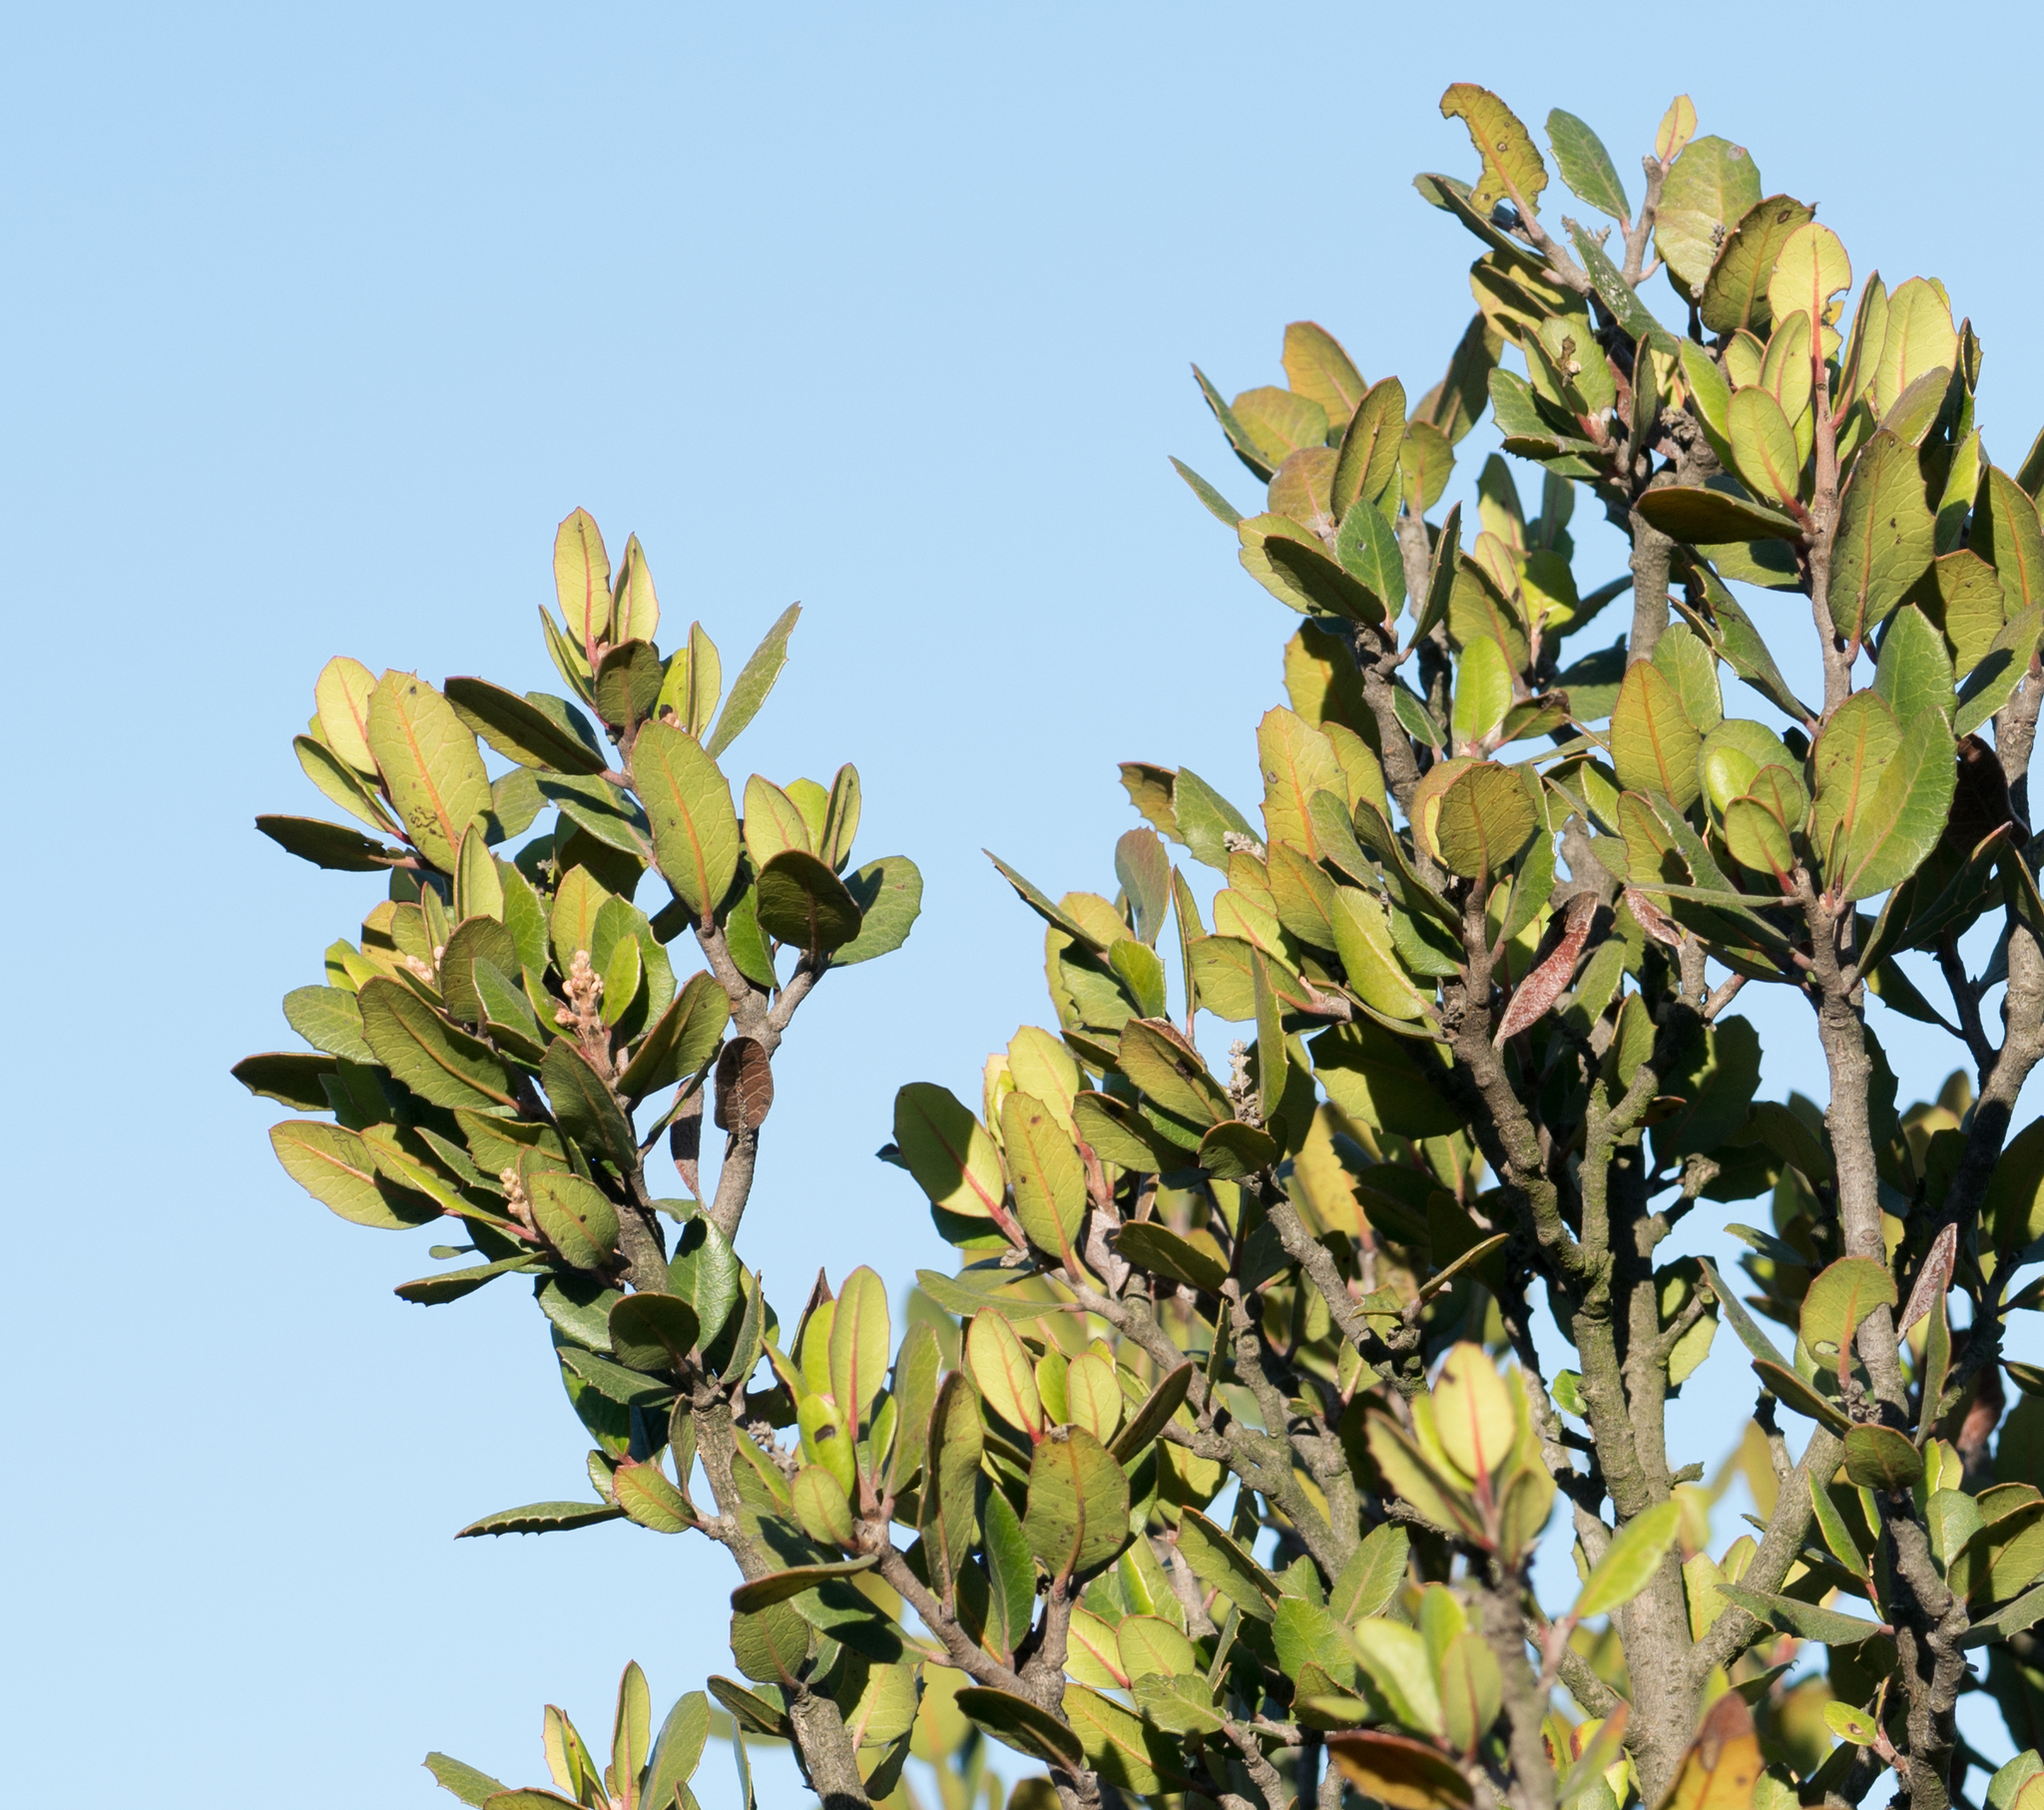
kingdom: Plantae
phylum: Tracheophyta
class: Magnoliopsida
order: Sapindales
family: Anacardiaceae
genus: Rhus
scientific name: Rhus integrifolia
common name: Lemonade sumac
